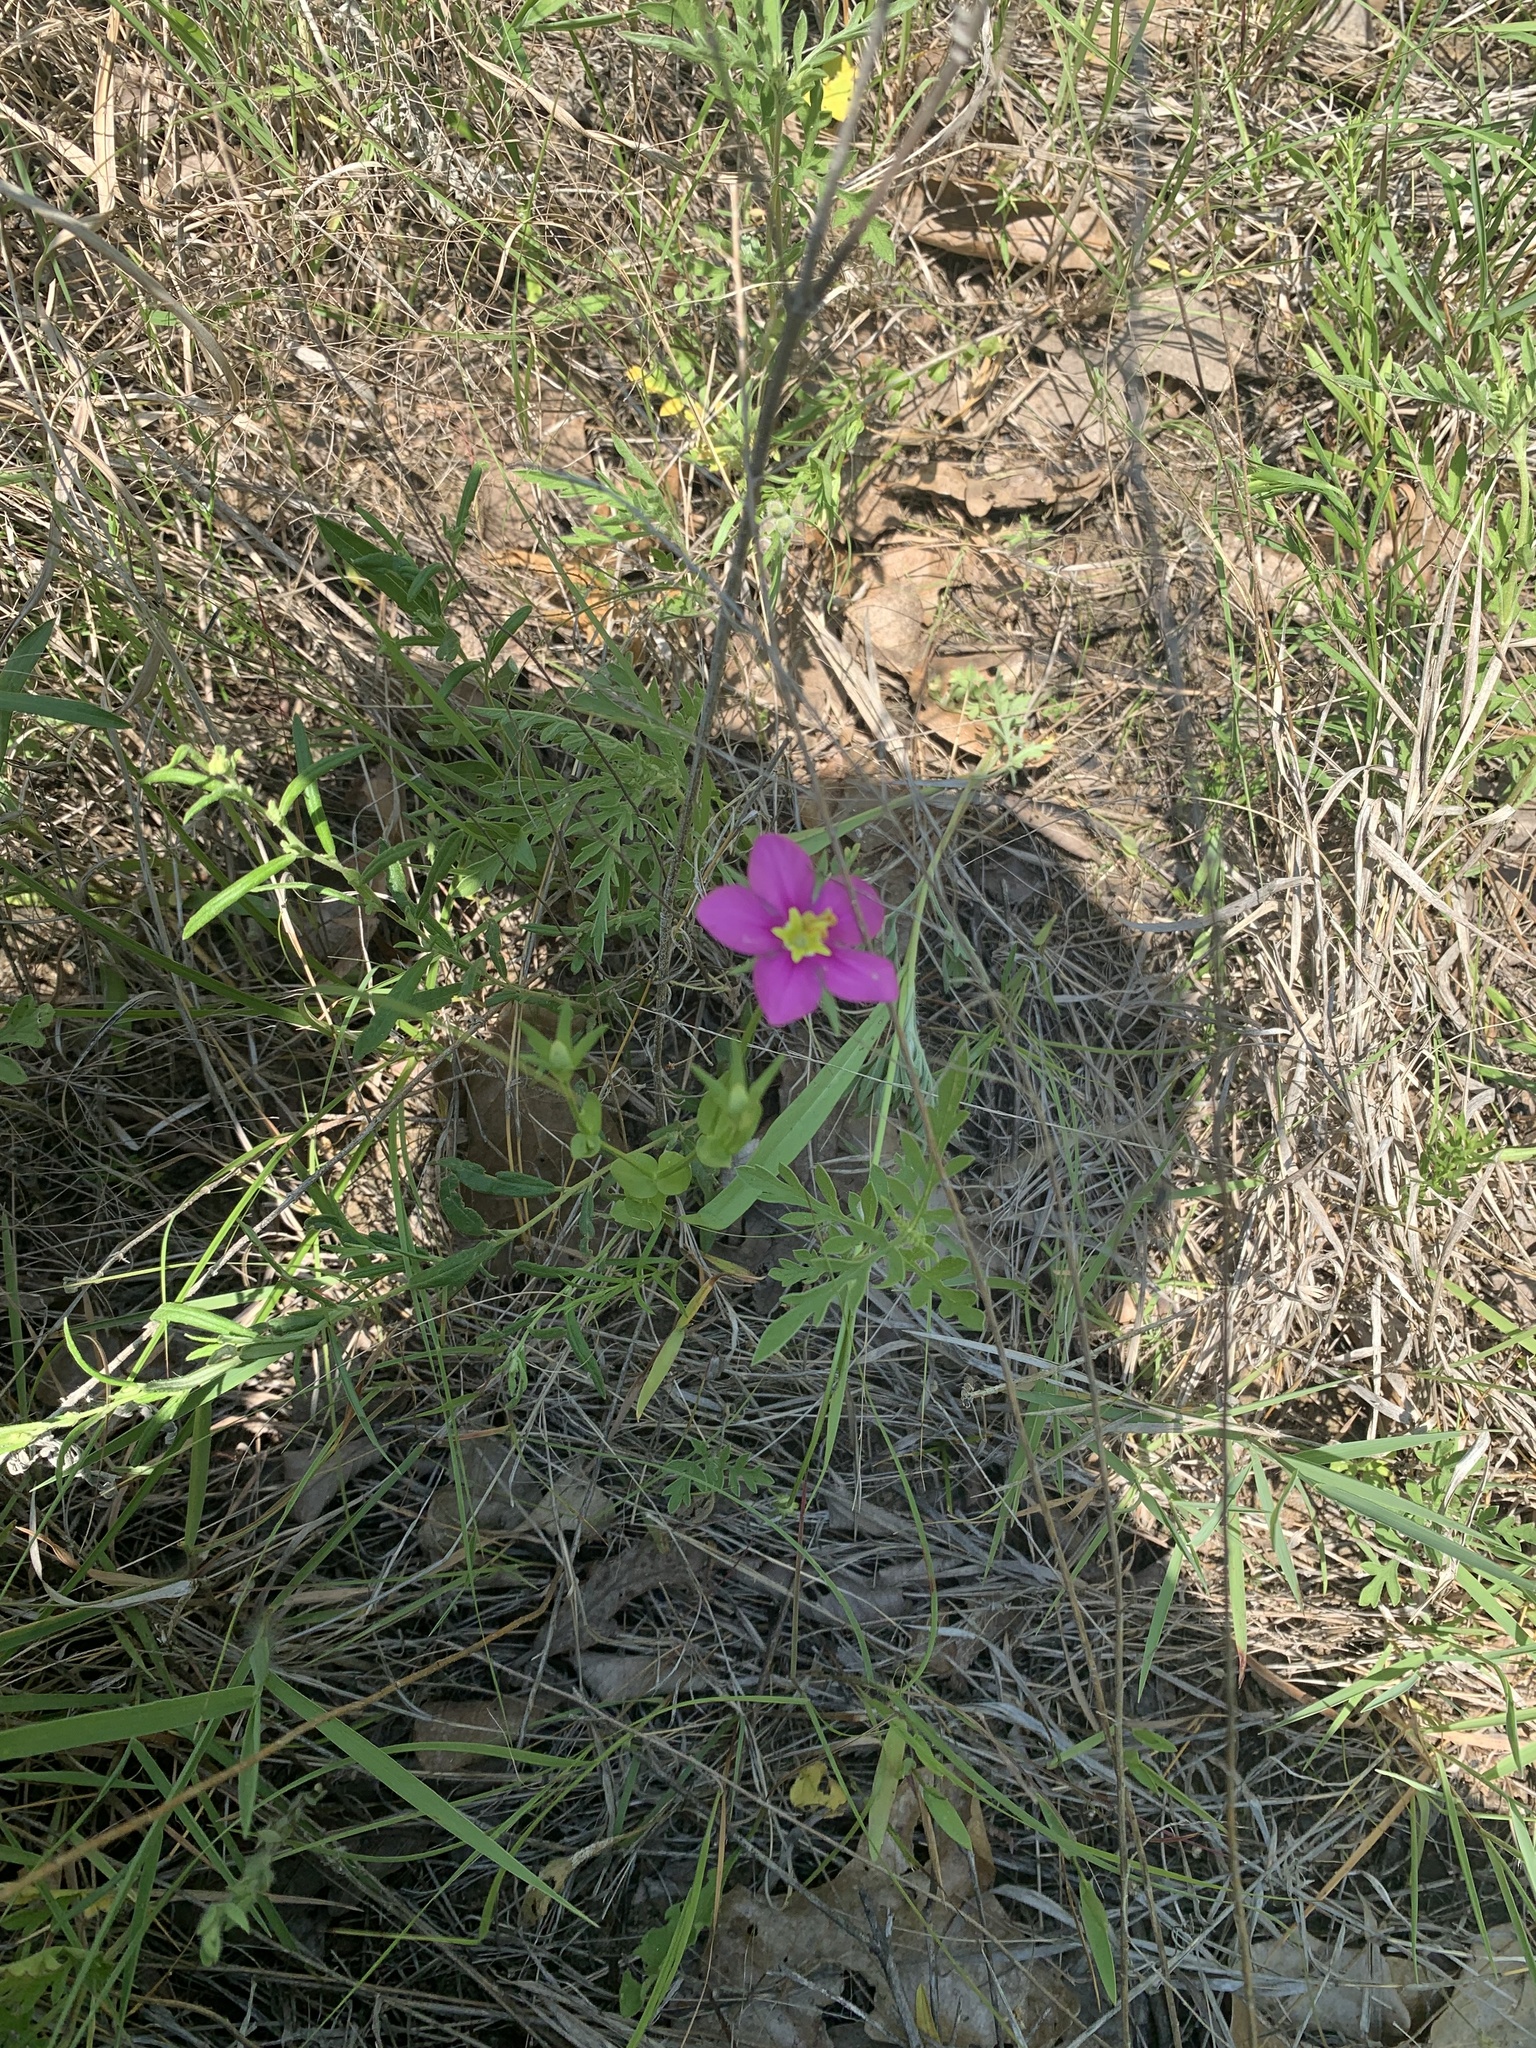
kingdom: Plantae
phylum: Tracheophyta
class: Magnoliopsida
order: Gentianales
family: Gentianaceae
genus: Sabatia
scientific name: Sabatia campestris
